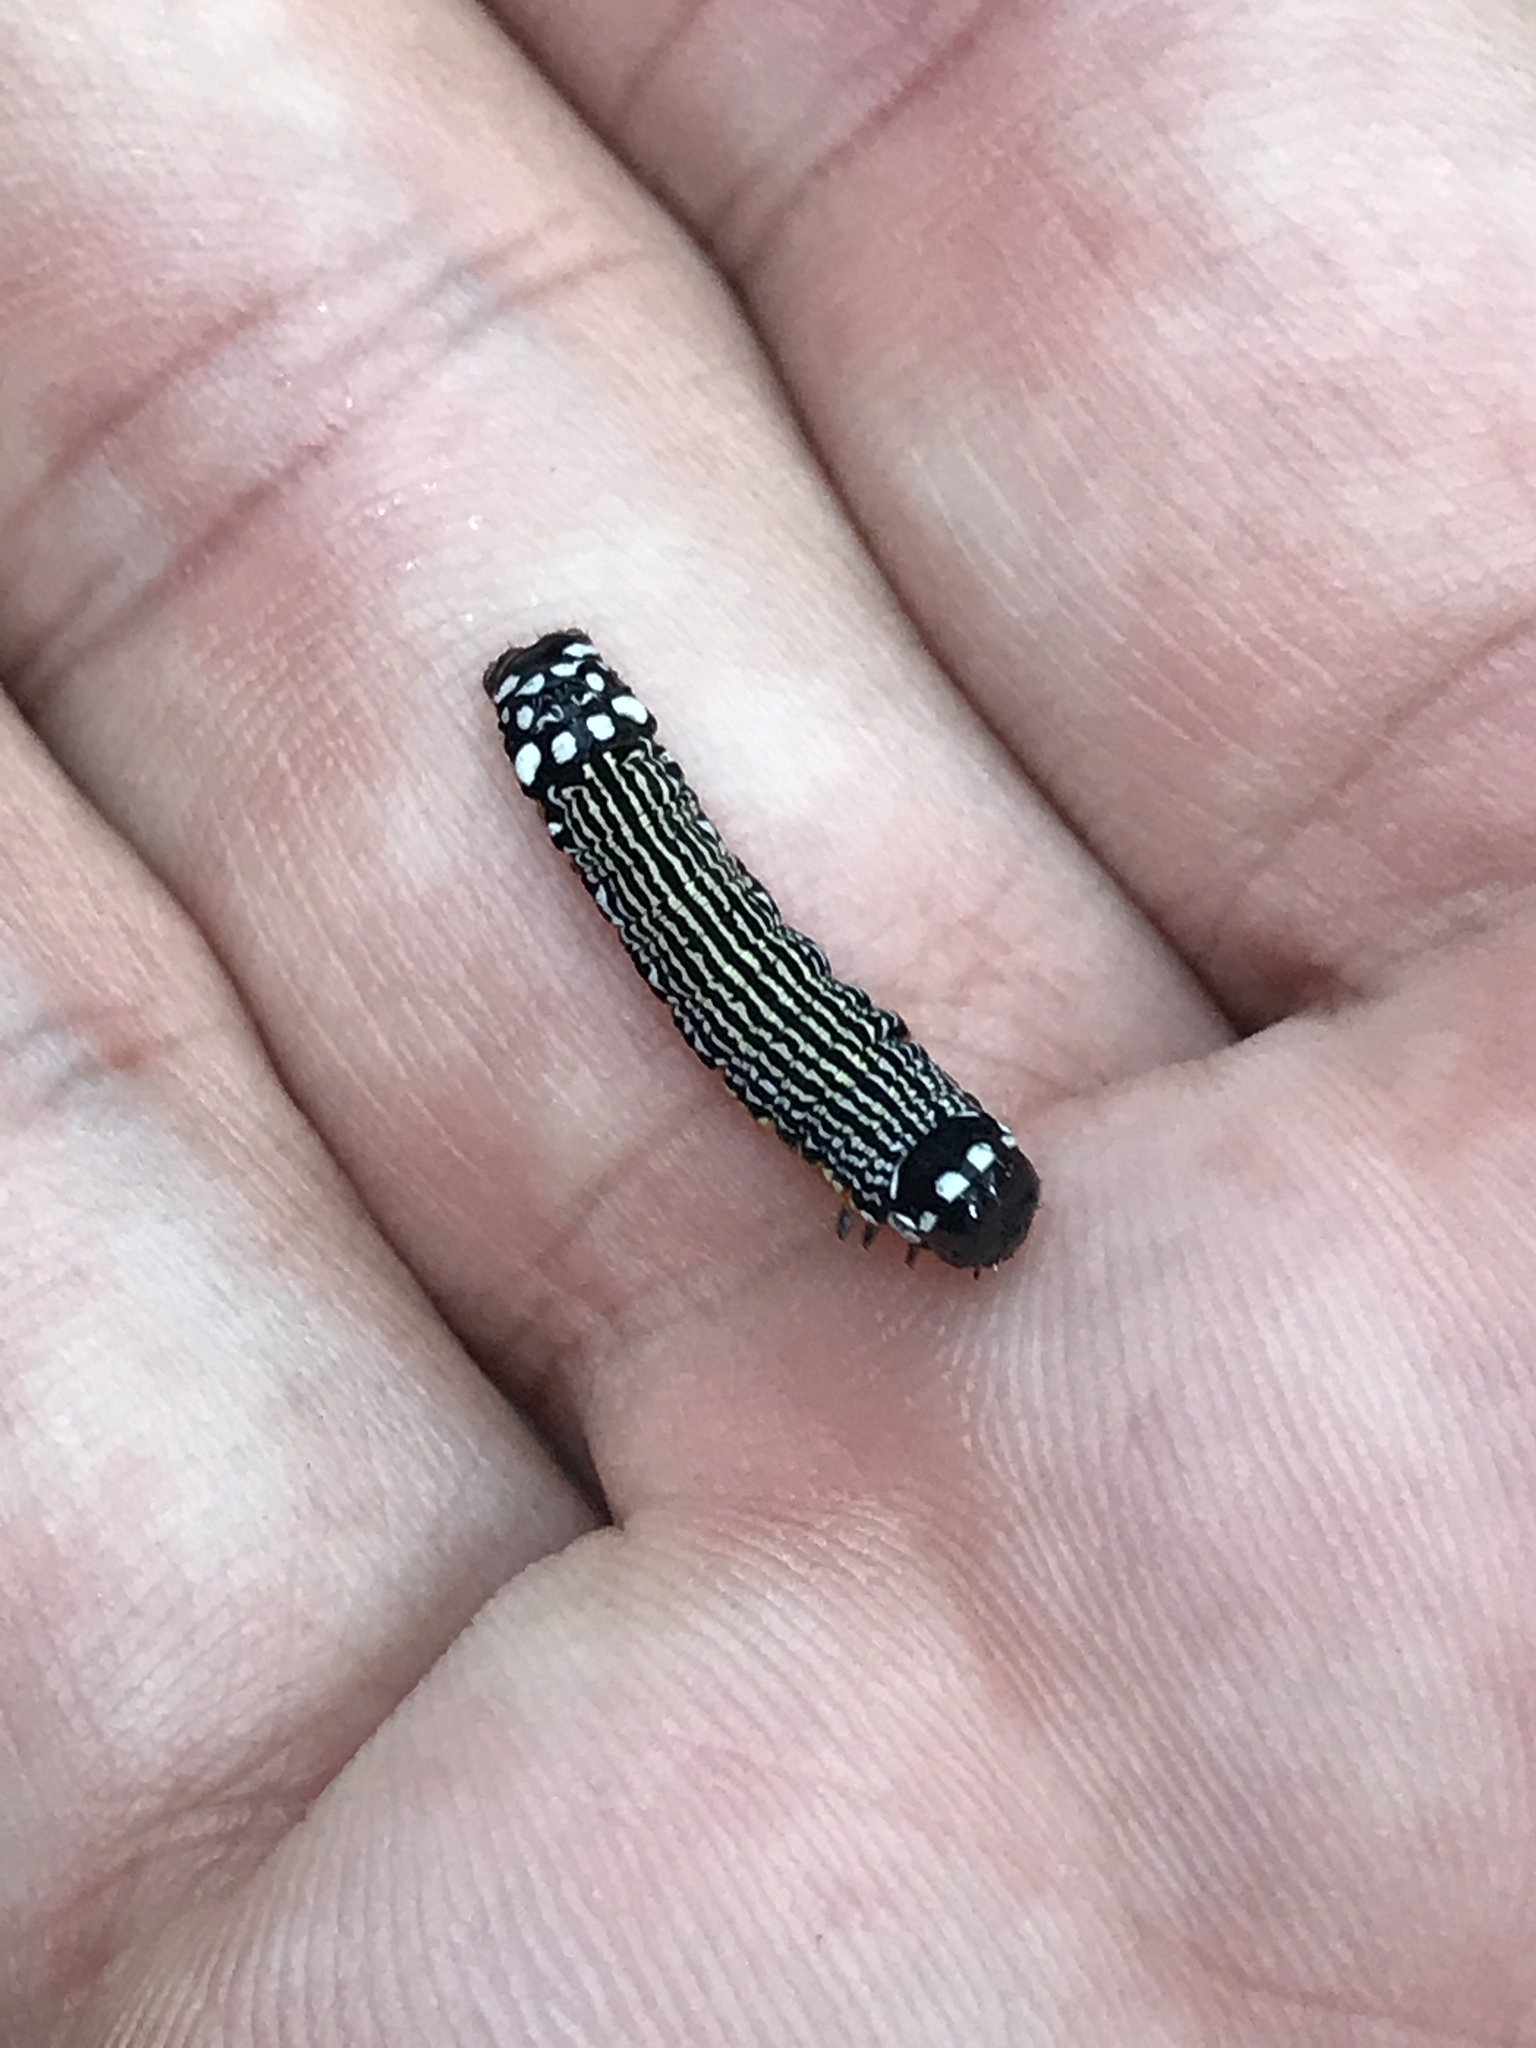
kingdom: Animalia
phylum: Arthropoda
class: Insecta
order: Lepidoptera
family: Noctuidae
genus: Phosphila
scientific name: Phosphila turbulenta
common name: Turbulent phosphila moth
